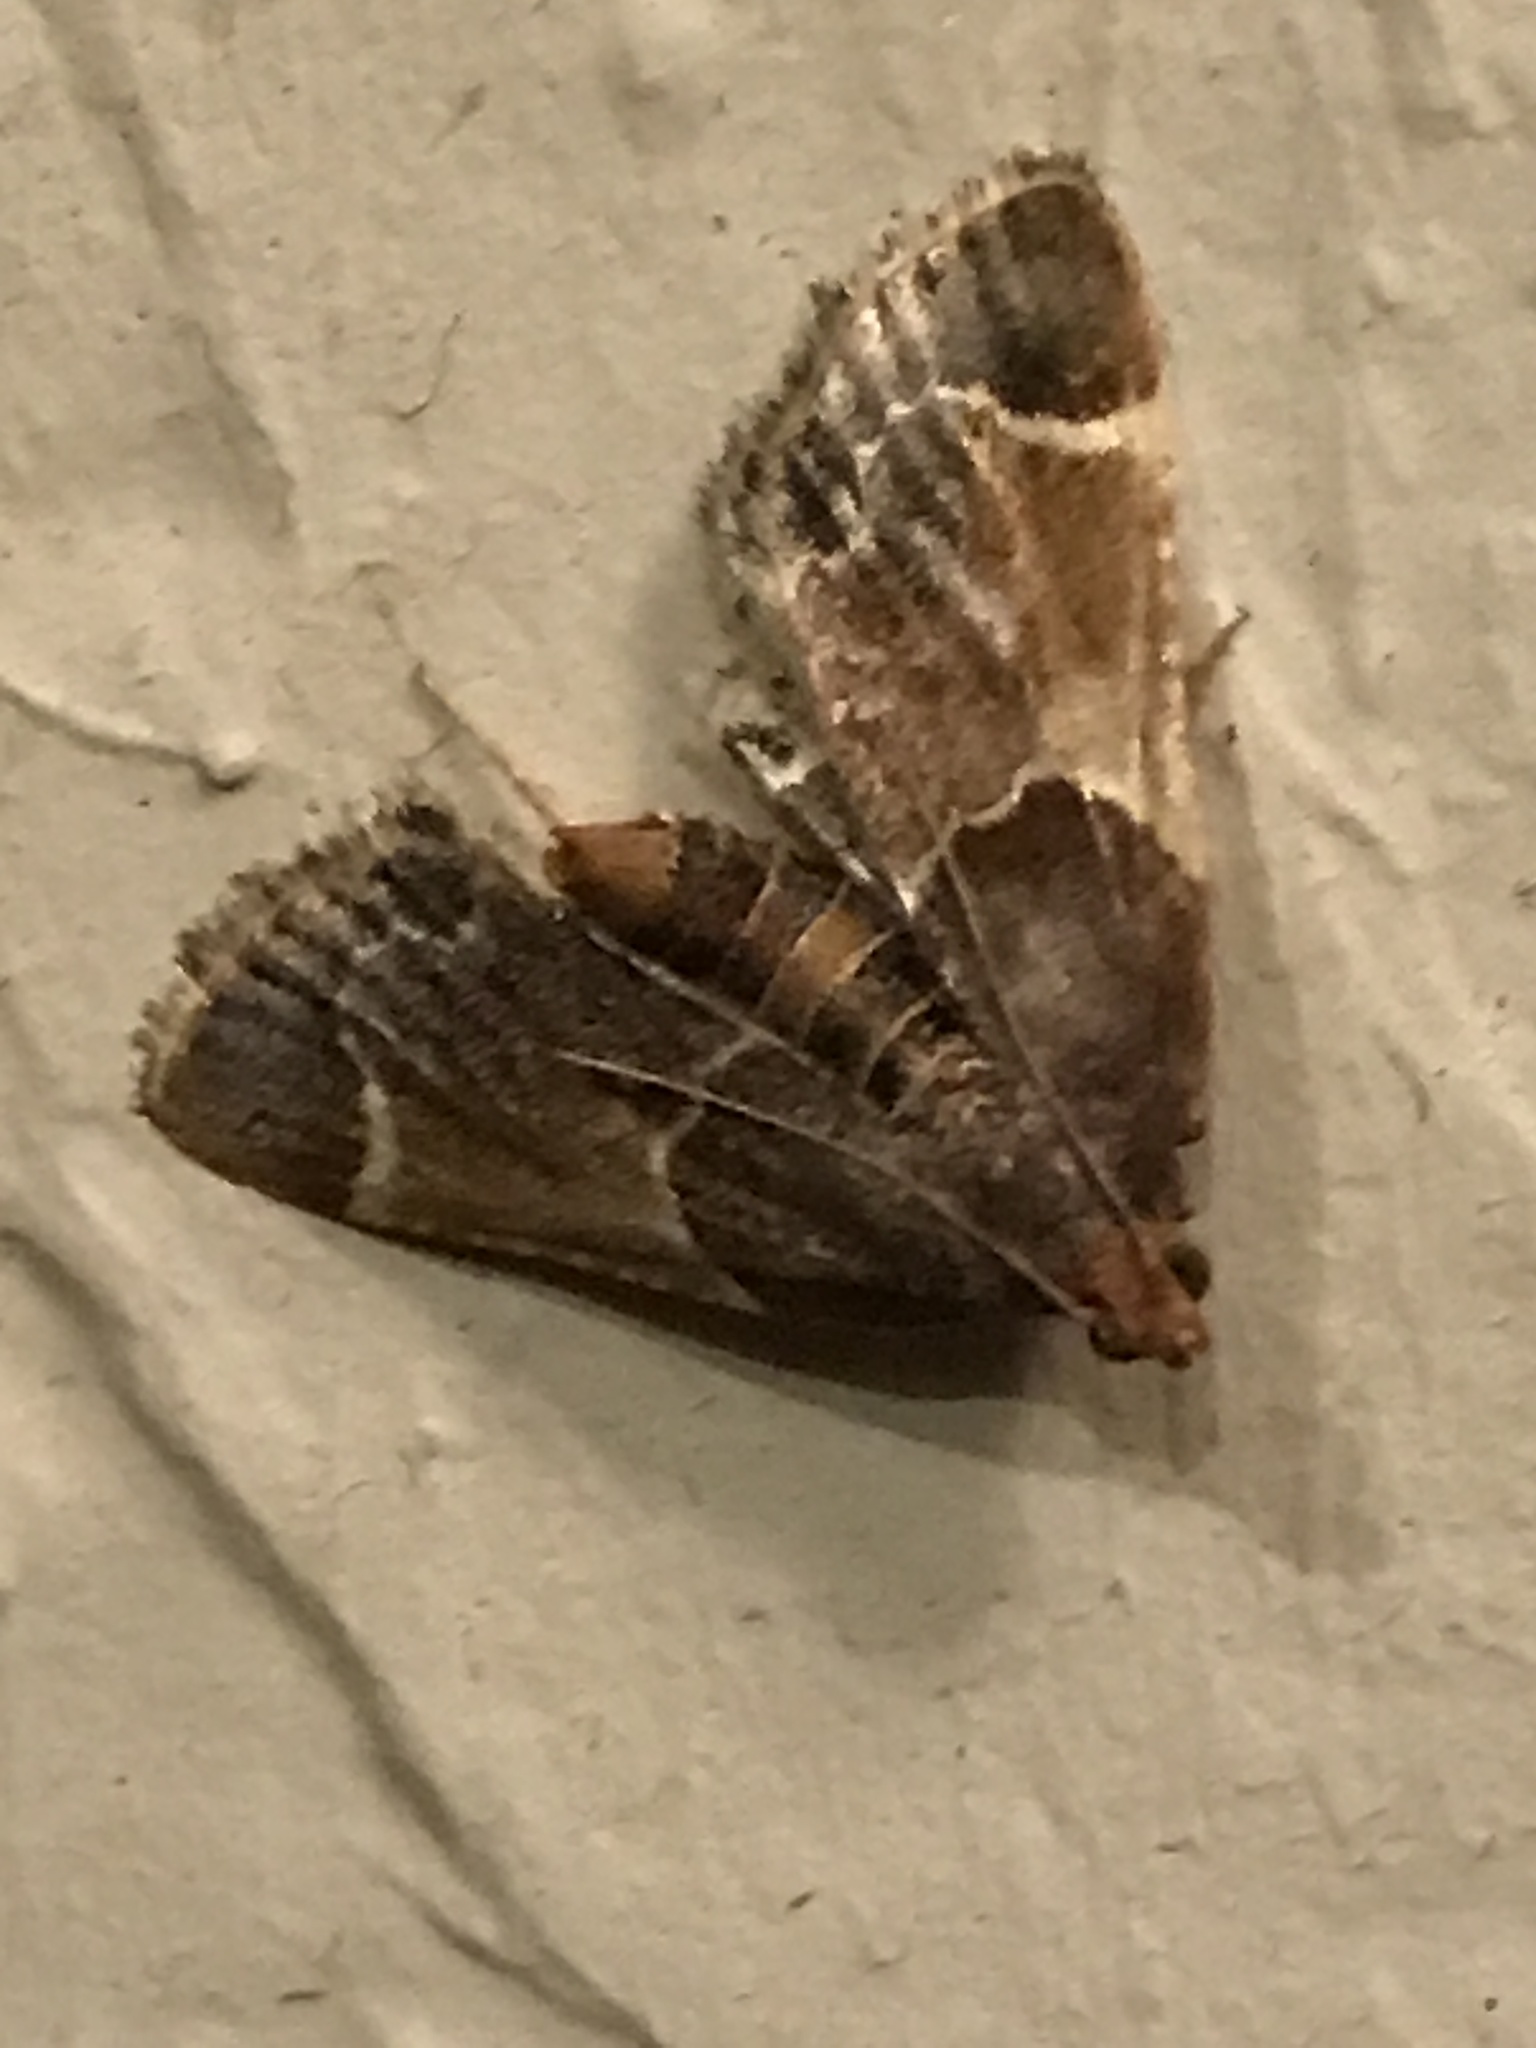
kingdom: Animalia
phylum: Arthropoda
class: Insecta
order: Lepidoptera
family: Pyralidae
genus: Pyralis
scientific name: Pyralis farinalis
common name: Meal moth
